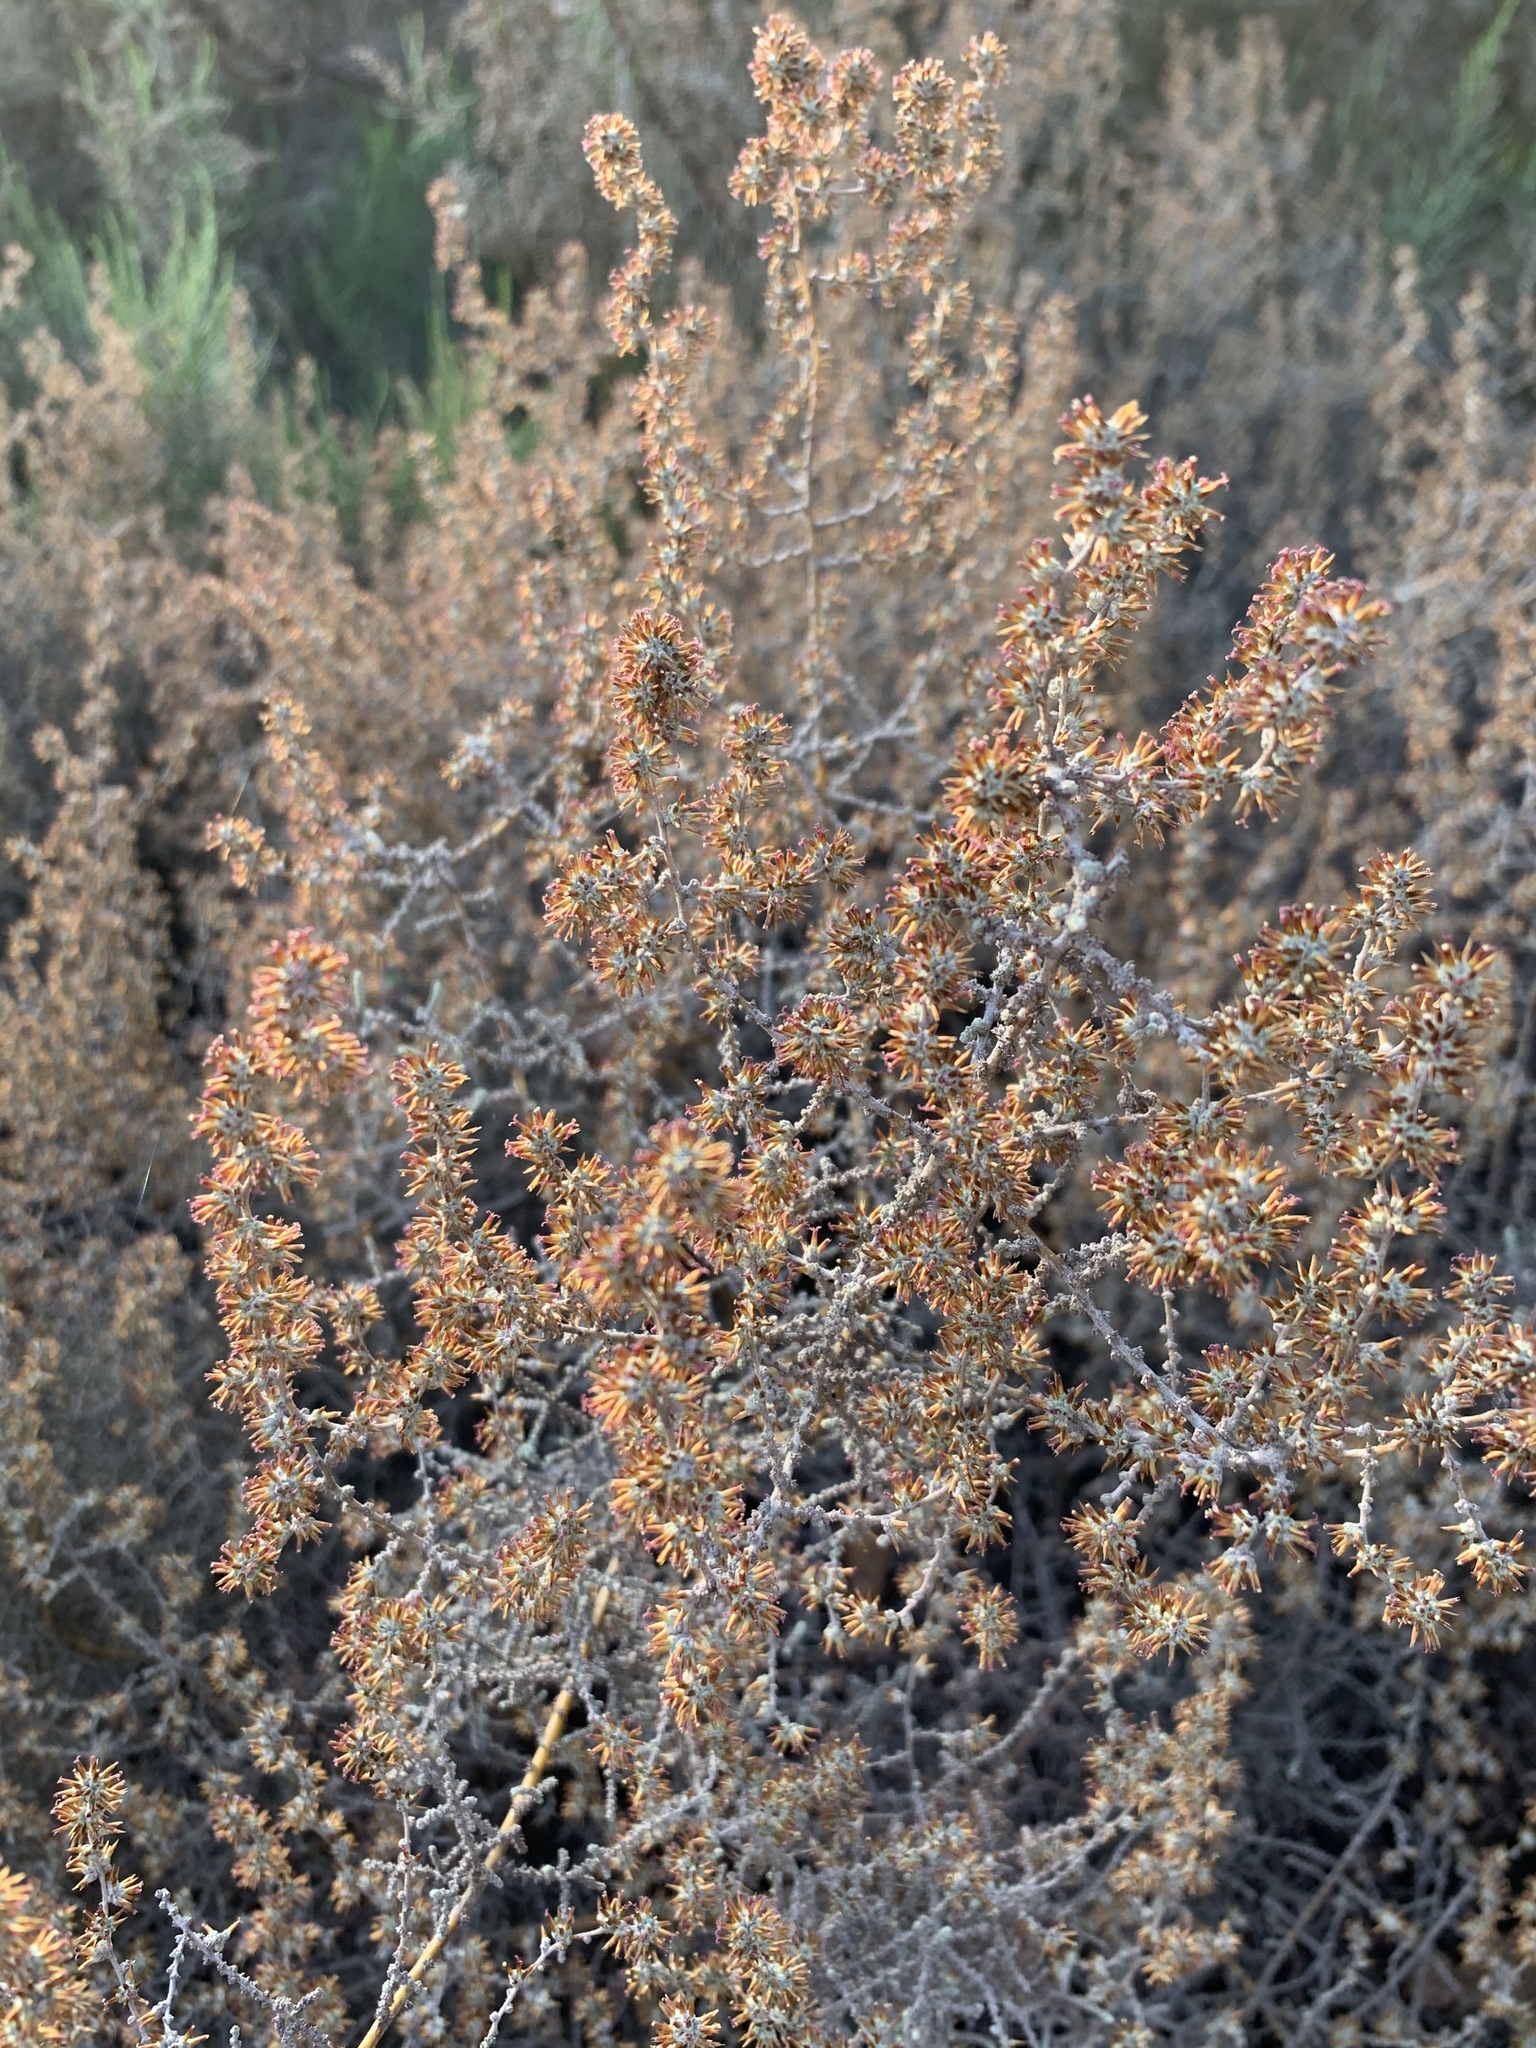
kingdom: Plantae
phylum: Tracheophyta
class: Magnoliopsida
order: Asterales
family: Asteraceae
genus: Seriphium
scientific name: Seriphium plumosum
